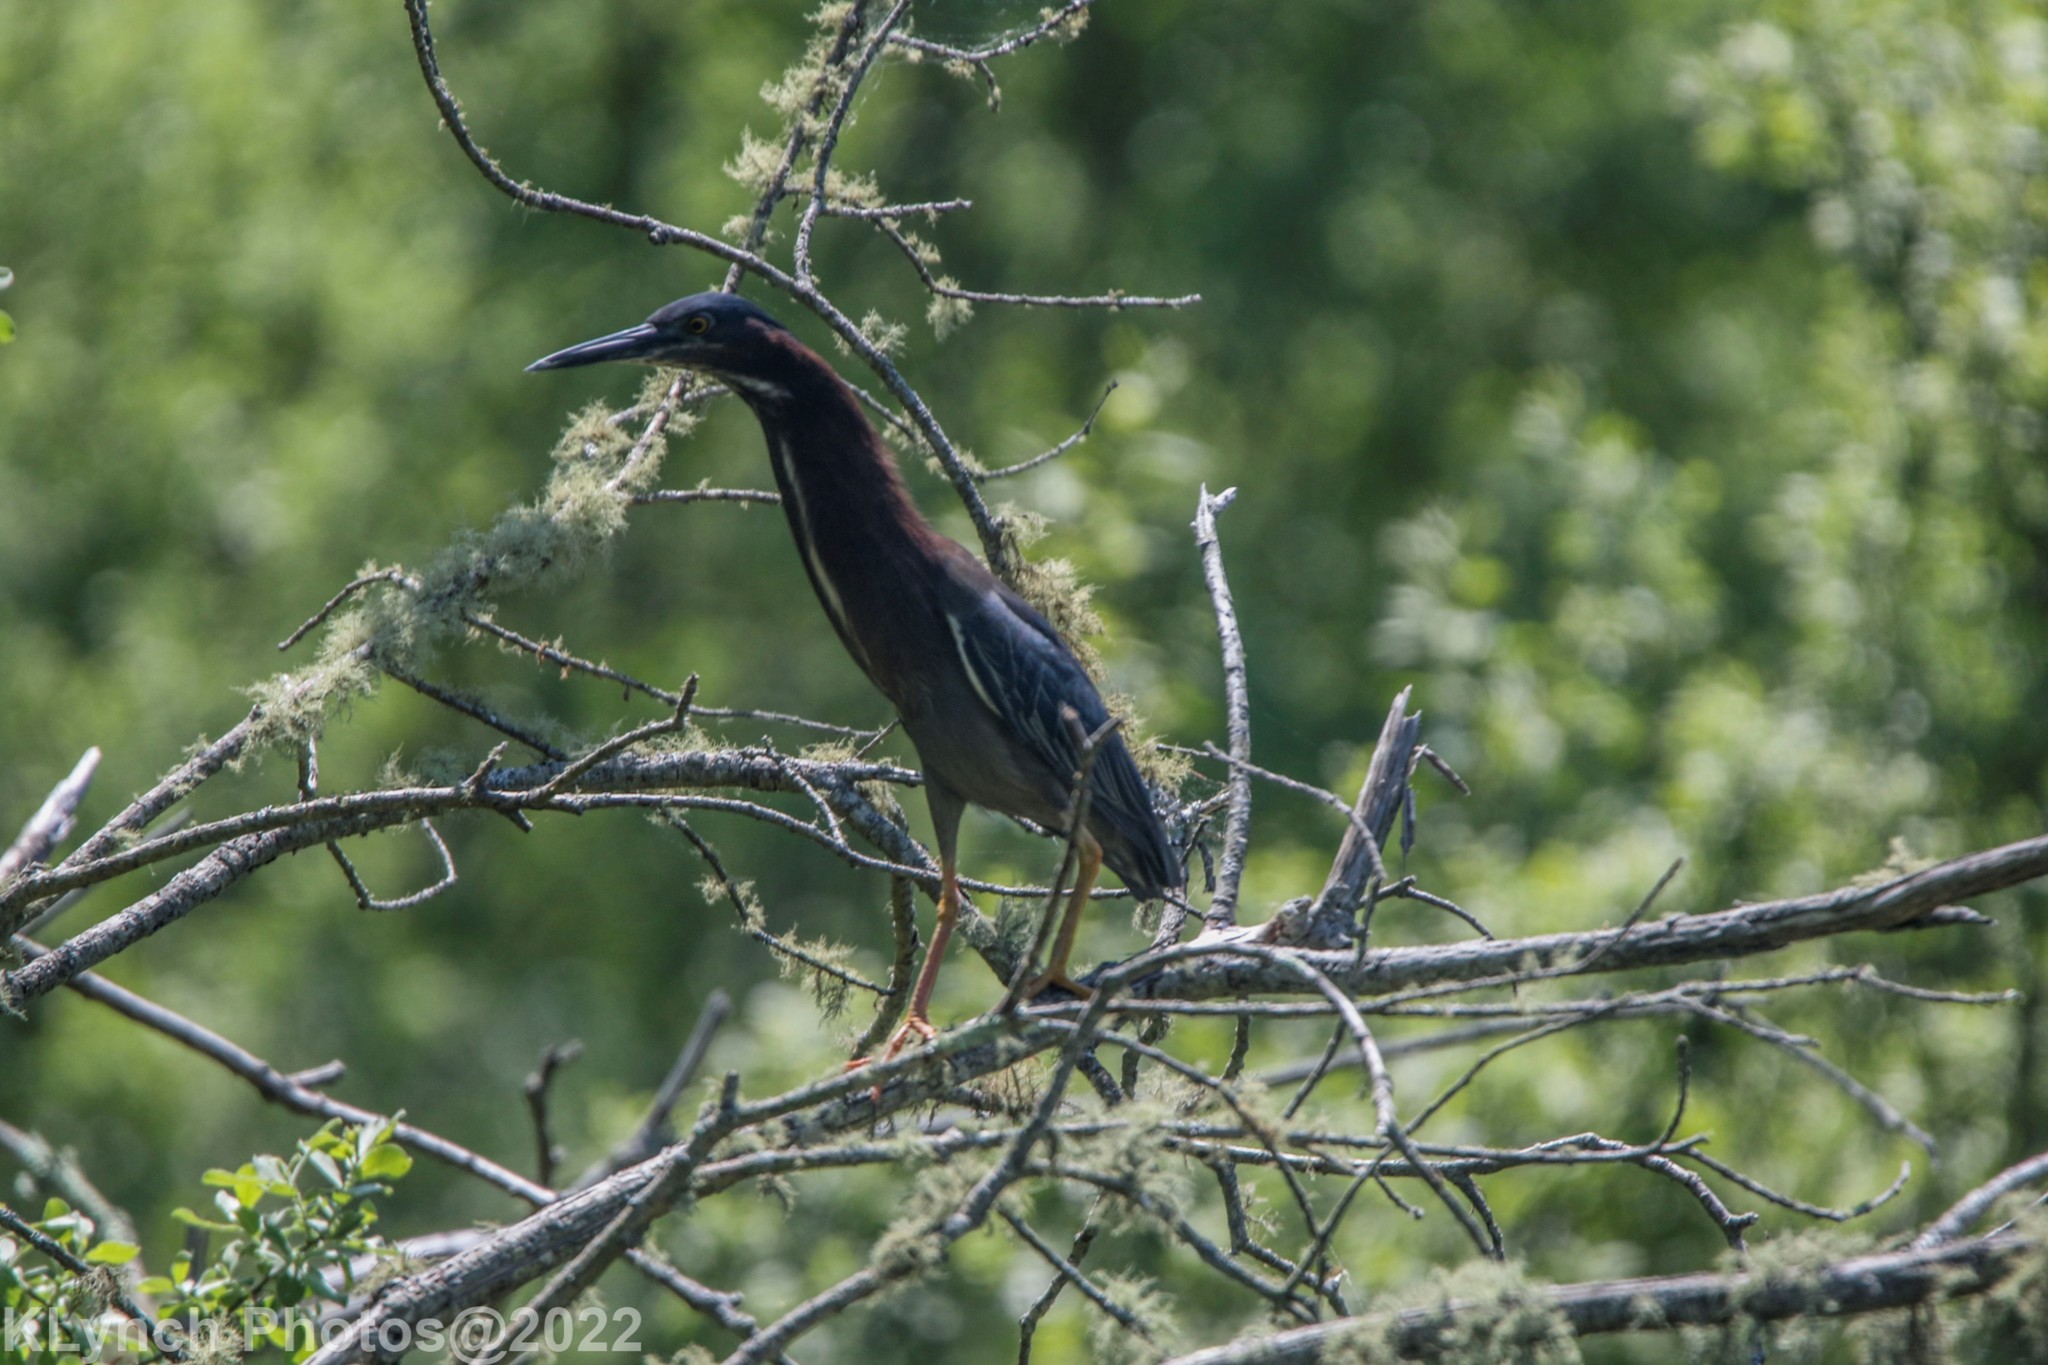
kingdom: Animalia
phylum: Chordata
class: Aves
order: Pelecaniformes
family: Ardeidae
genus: Butorides
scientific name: Butorides virescens
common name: Green heron
